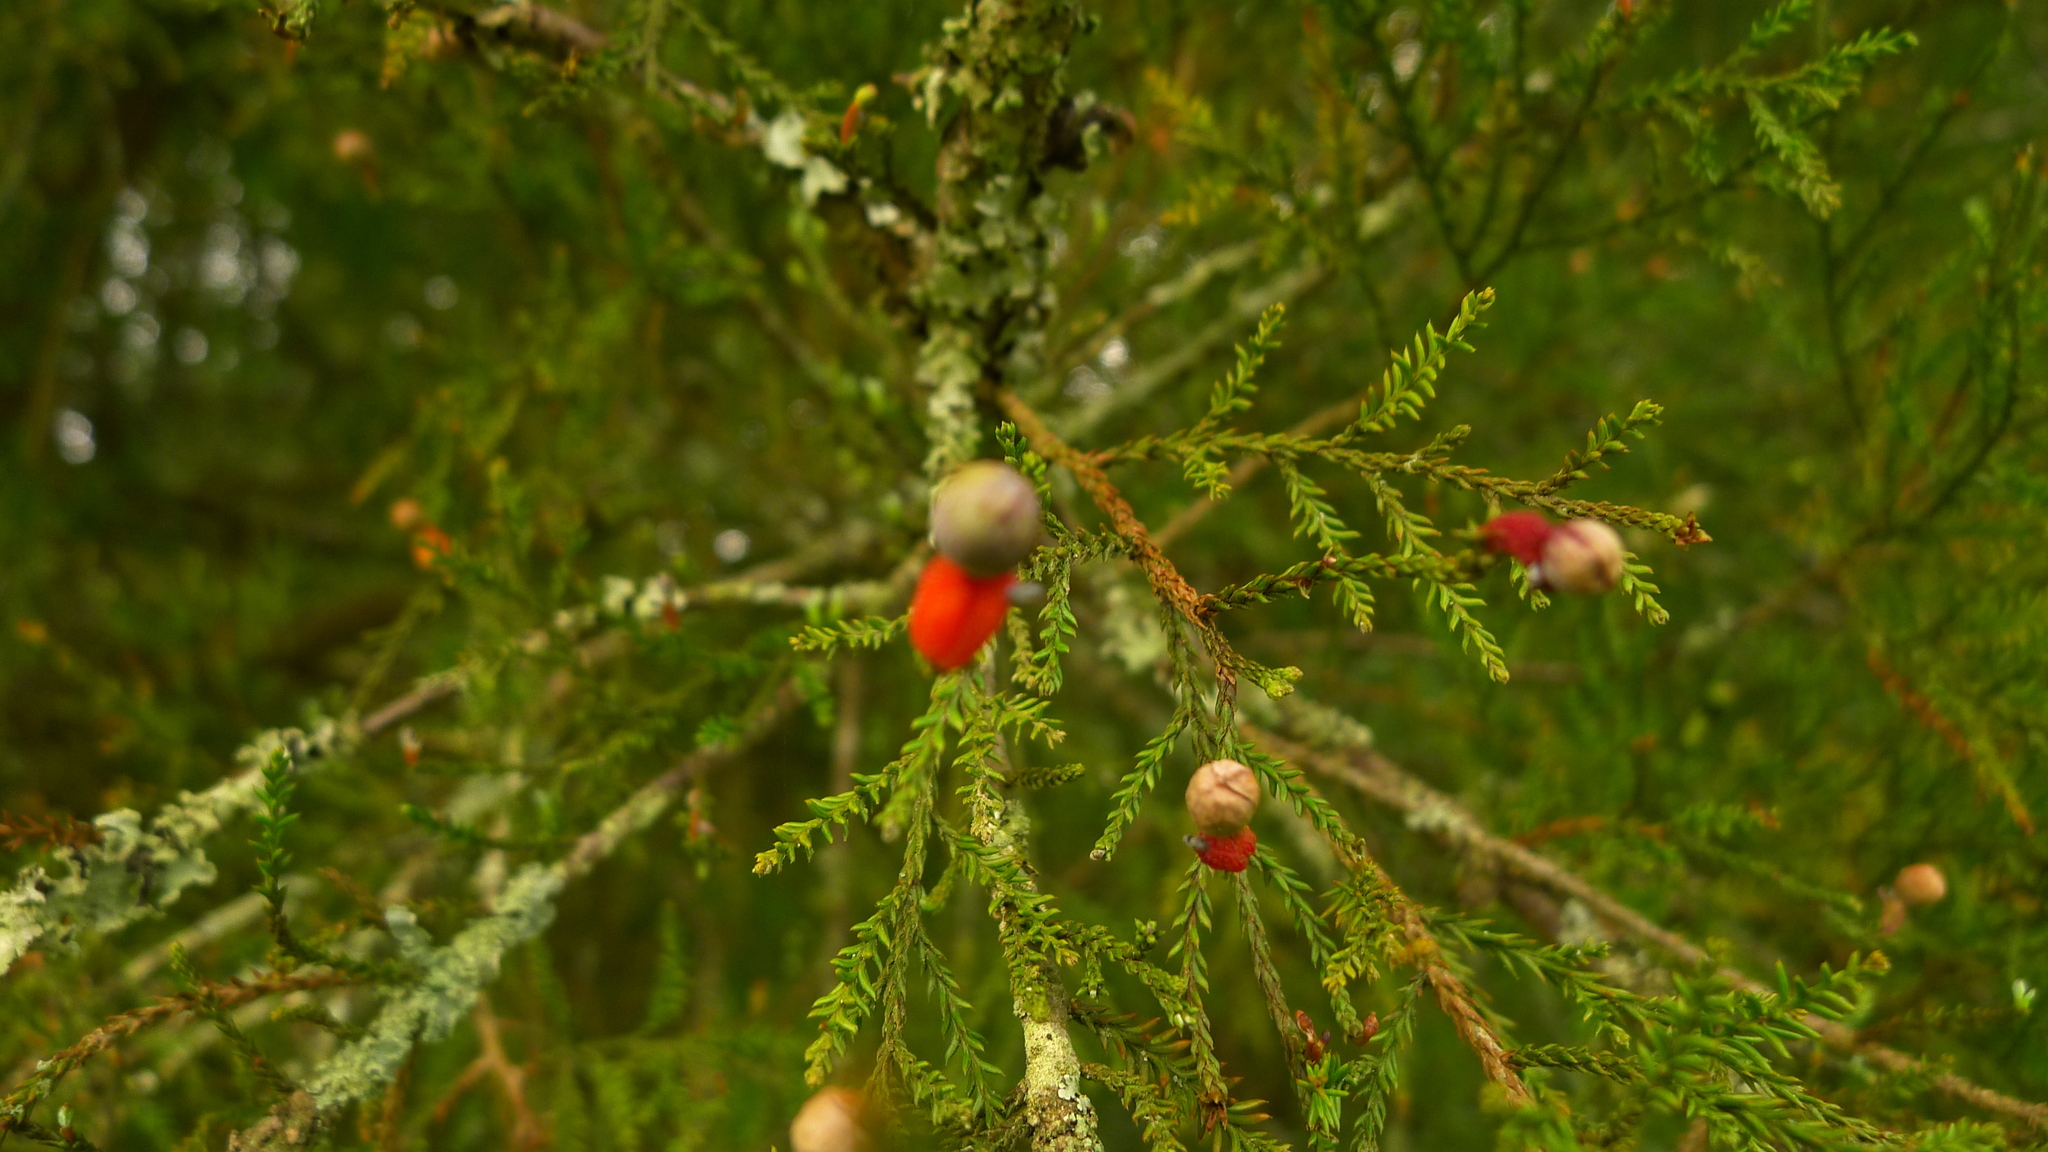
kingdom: Plantae
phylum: Tracheophyta
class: Pinopsida
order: Pinales
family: Podocarpaceae
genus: Dacrycarpus
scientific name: Dacrycarpus dacrydioides
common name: White pine
